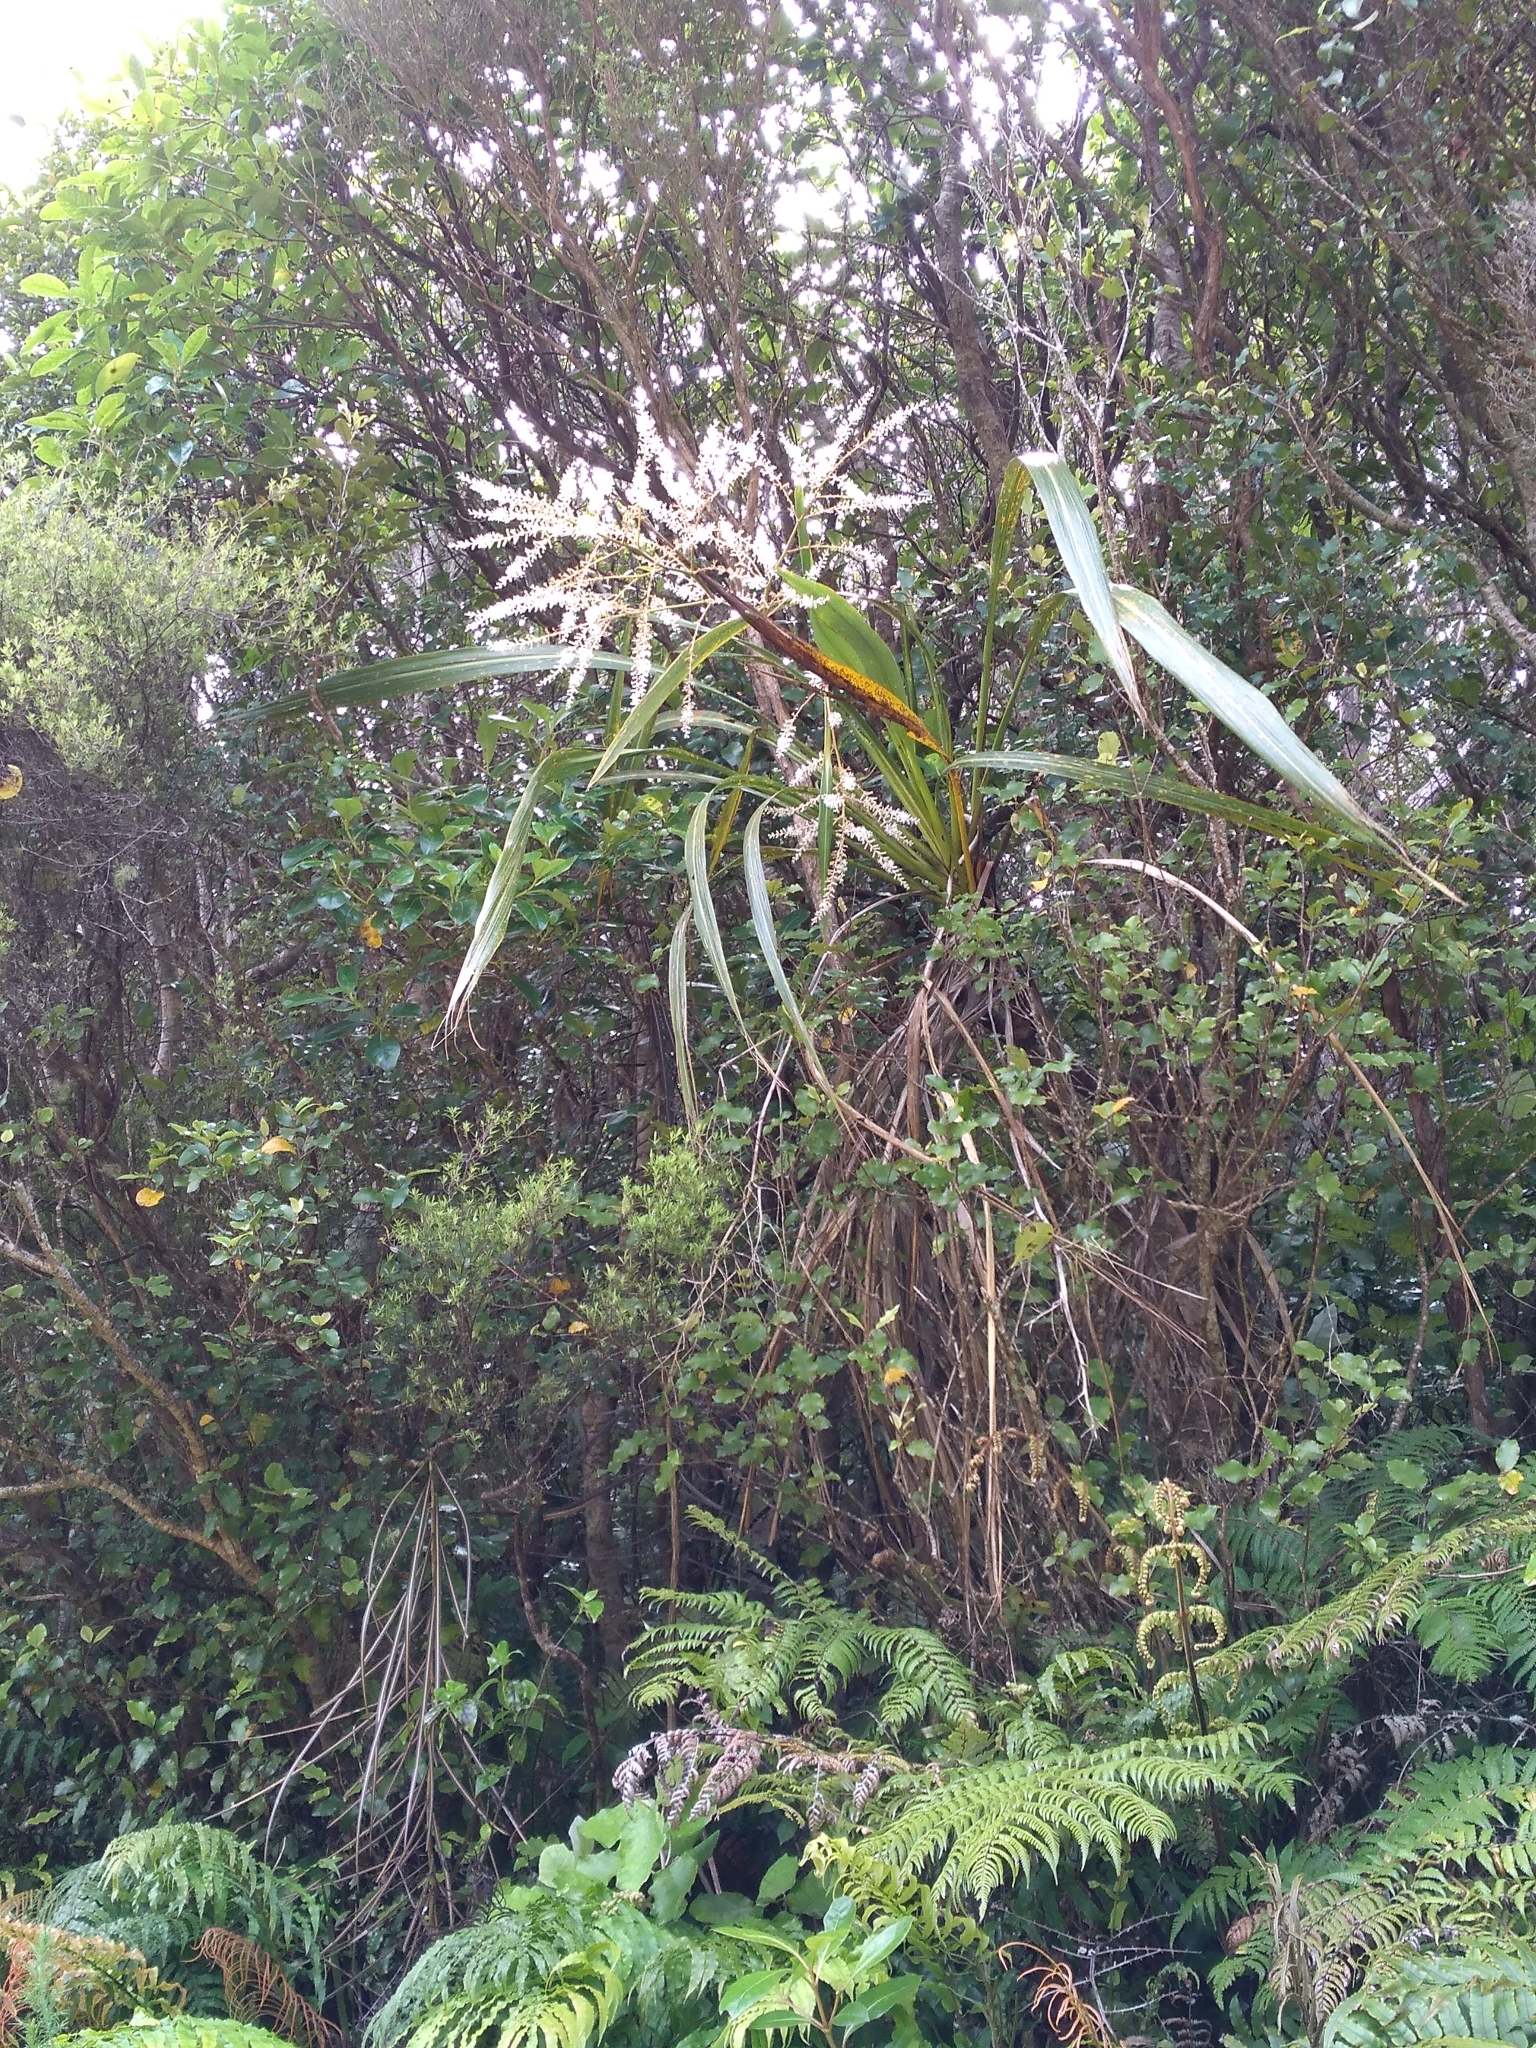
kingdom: Plantae
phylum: Tracheophyta
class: Liliopsida
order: Asparagales
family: Asparagaceae
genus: Cordyline
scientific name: Cordyline banksii
